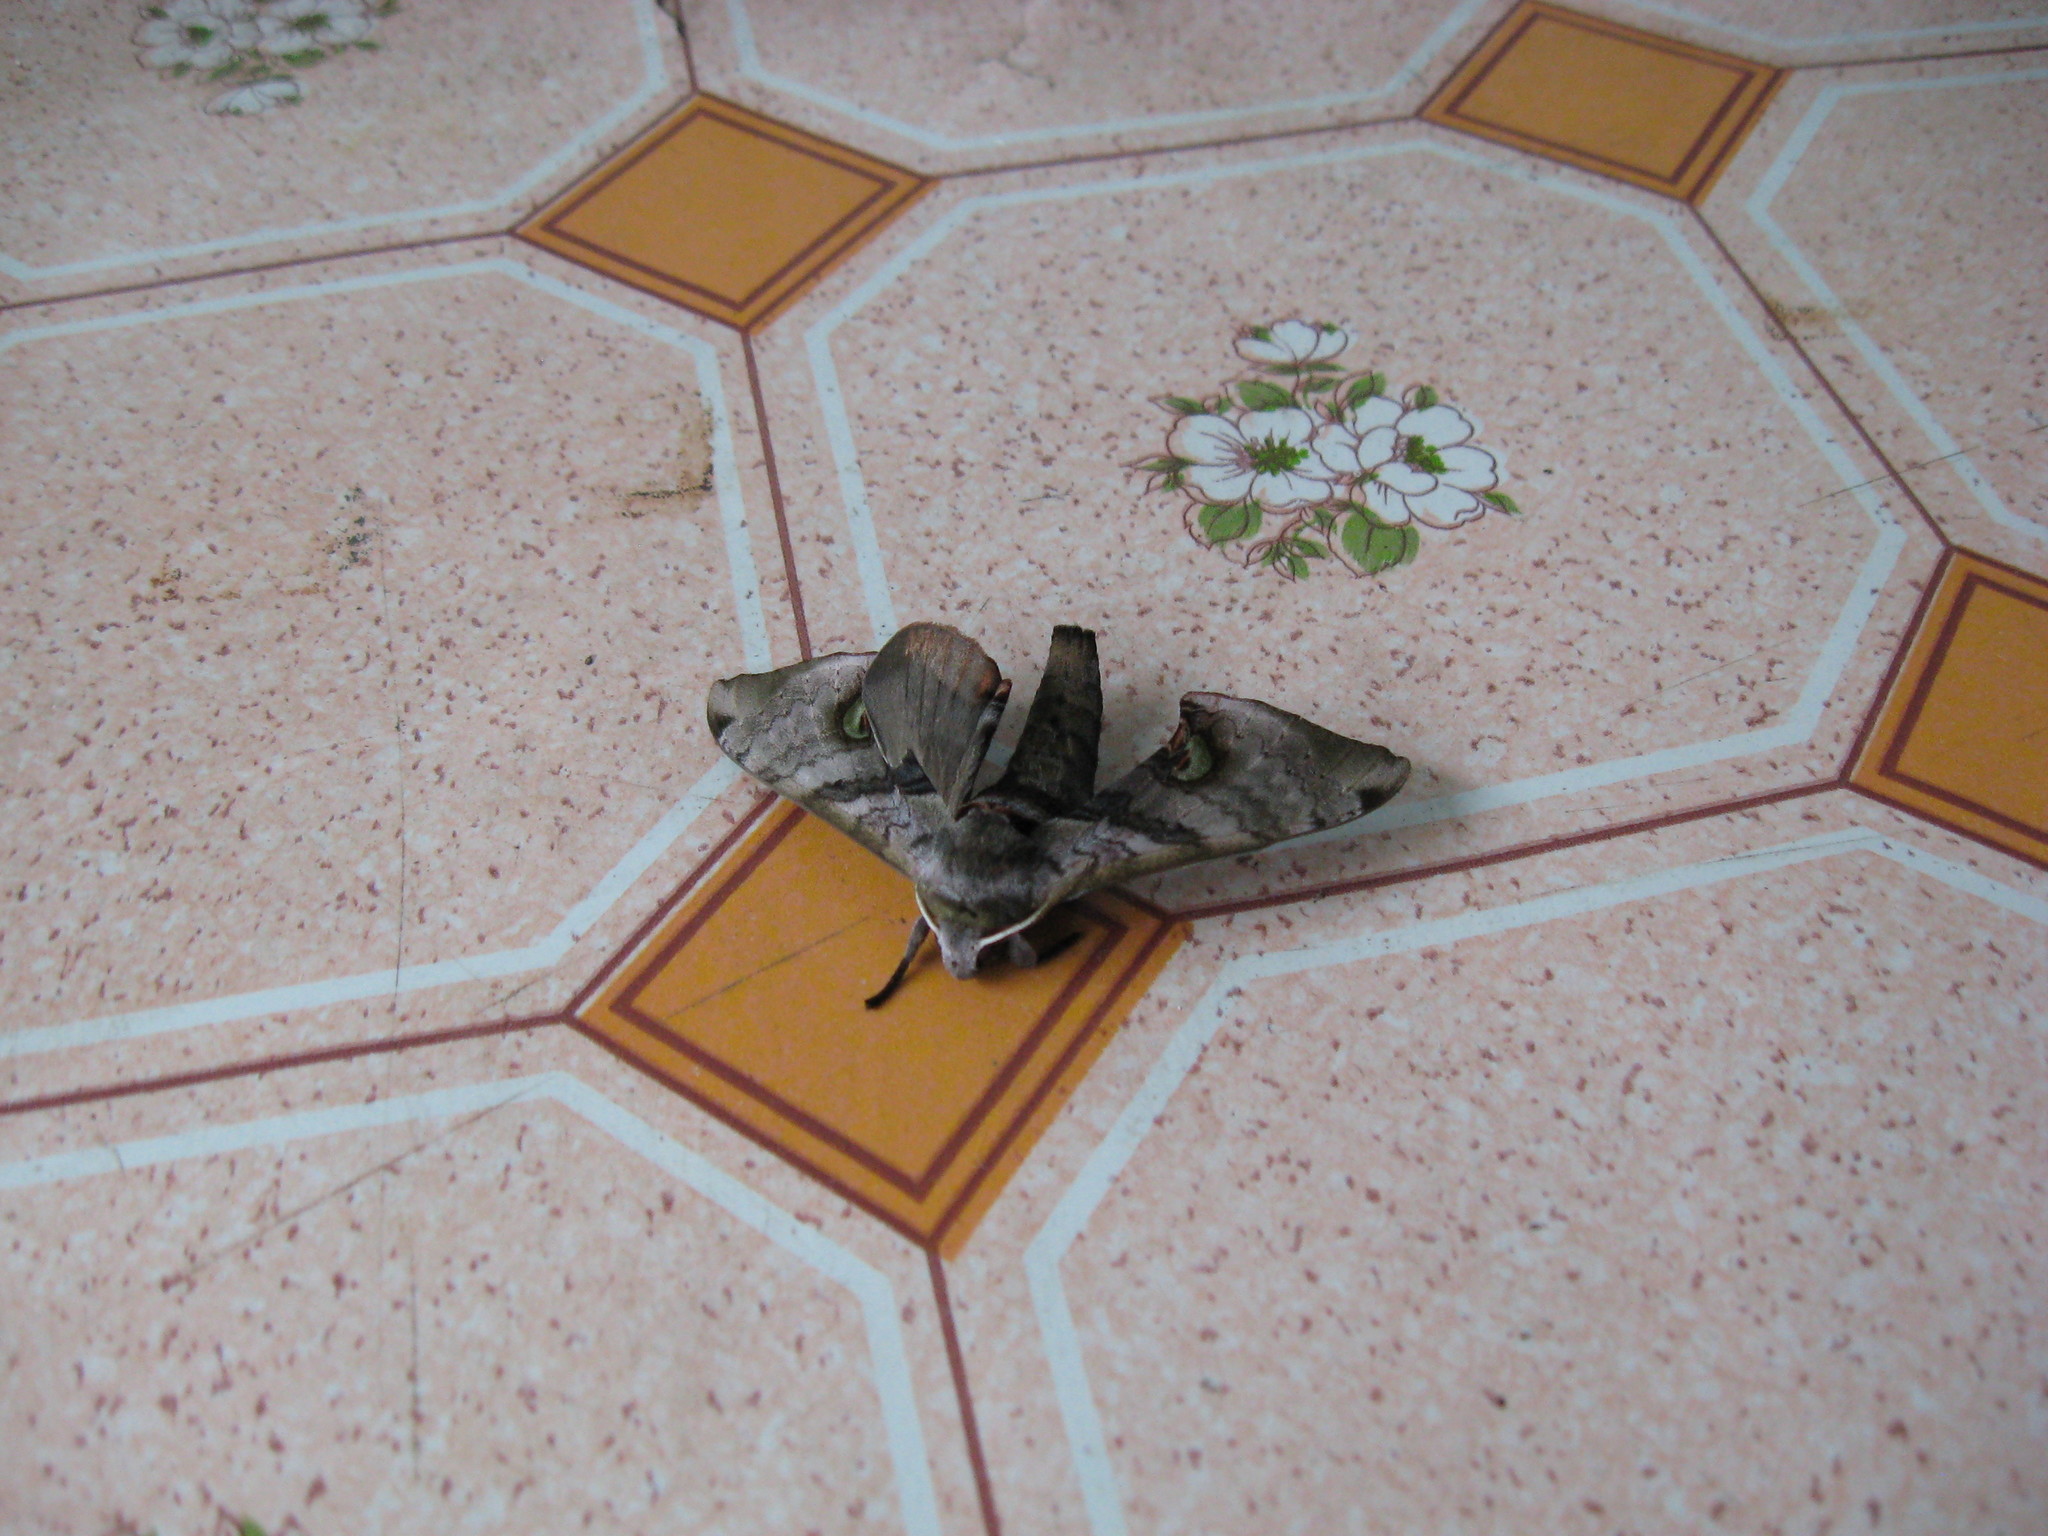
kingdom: Animalia
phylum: Arthropoda
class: Insecta
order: Lepidoptera
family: Sphingidae
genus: Daphnusa
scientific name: Daphnusa ocellaris
